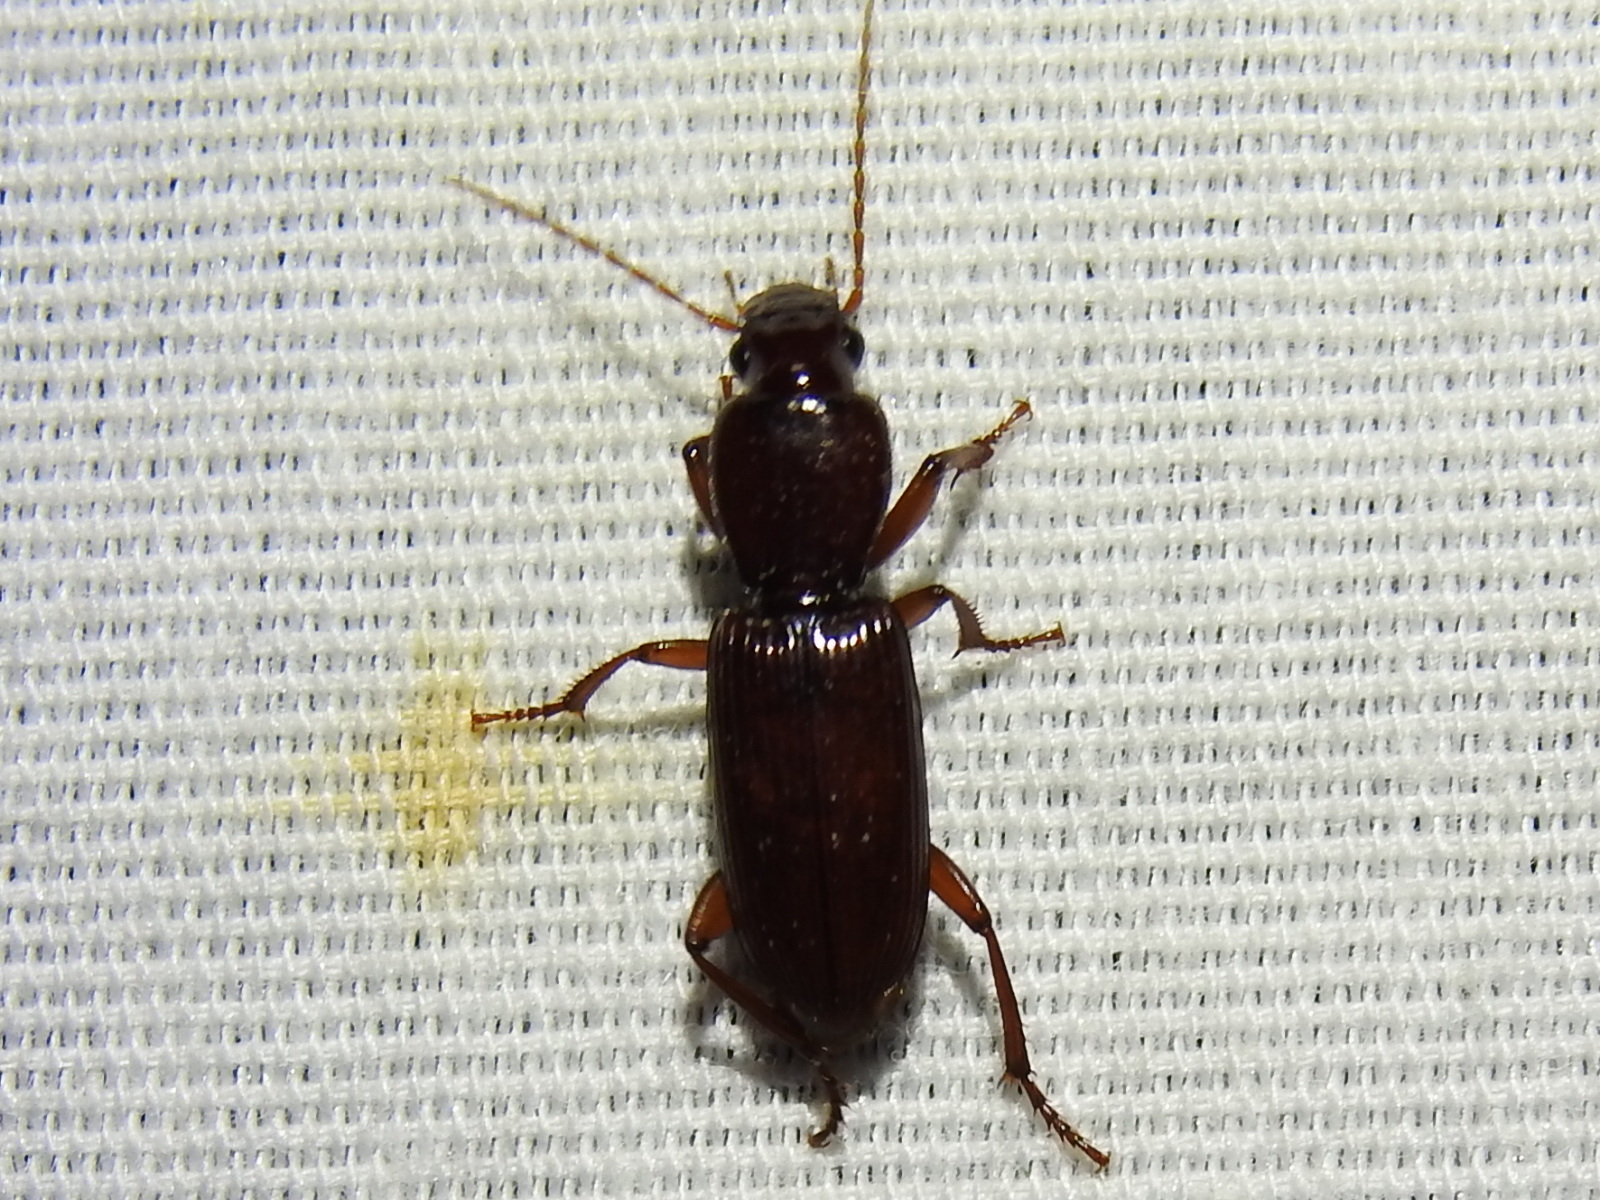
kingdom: Animalia
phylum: Arthropoda
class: Insecta
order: Coleoptera
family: Carabidae
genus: Stenomorphus
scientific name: Stenomorphus californicus
